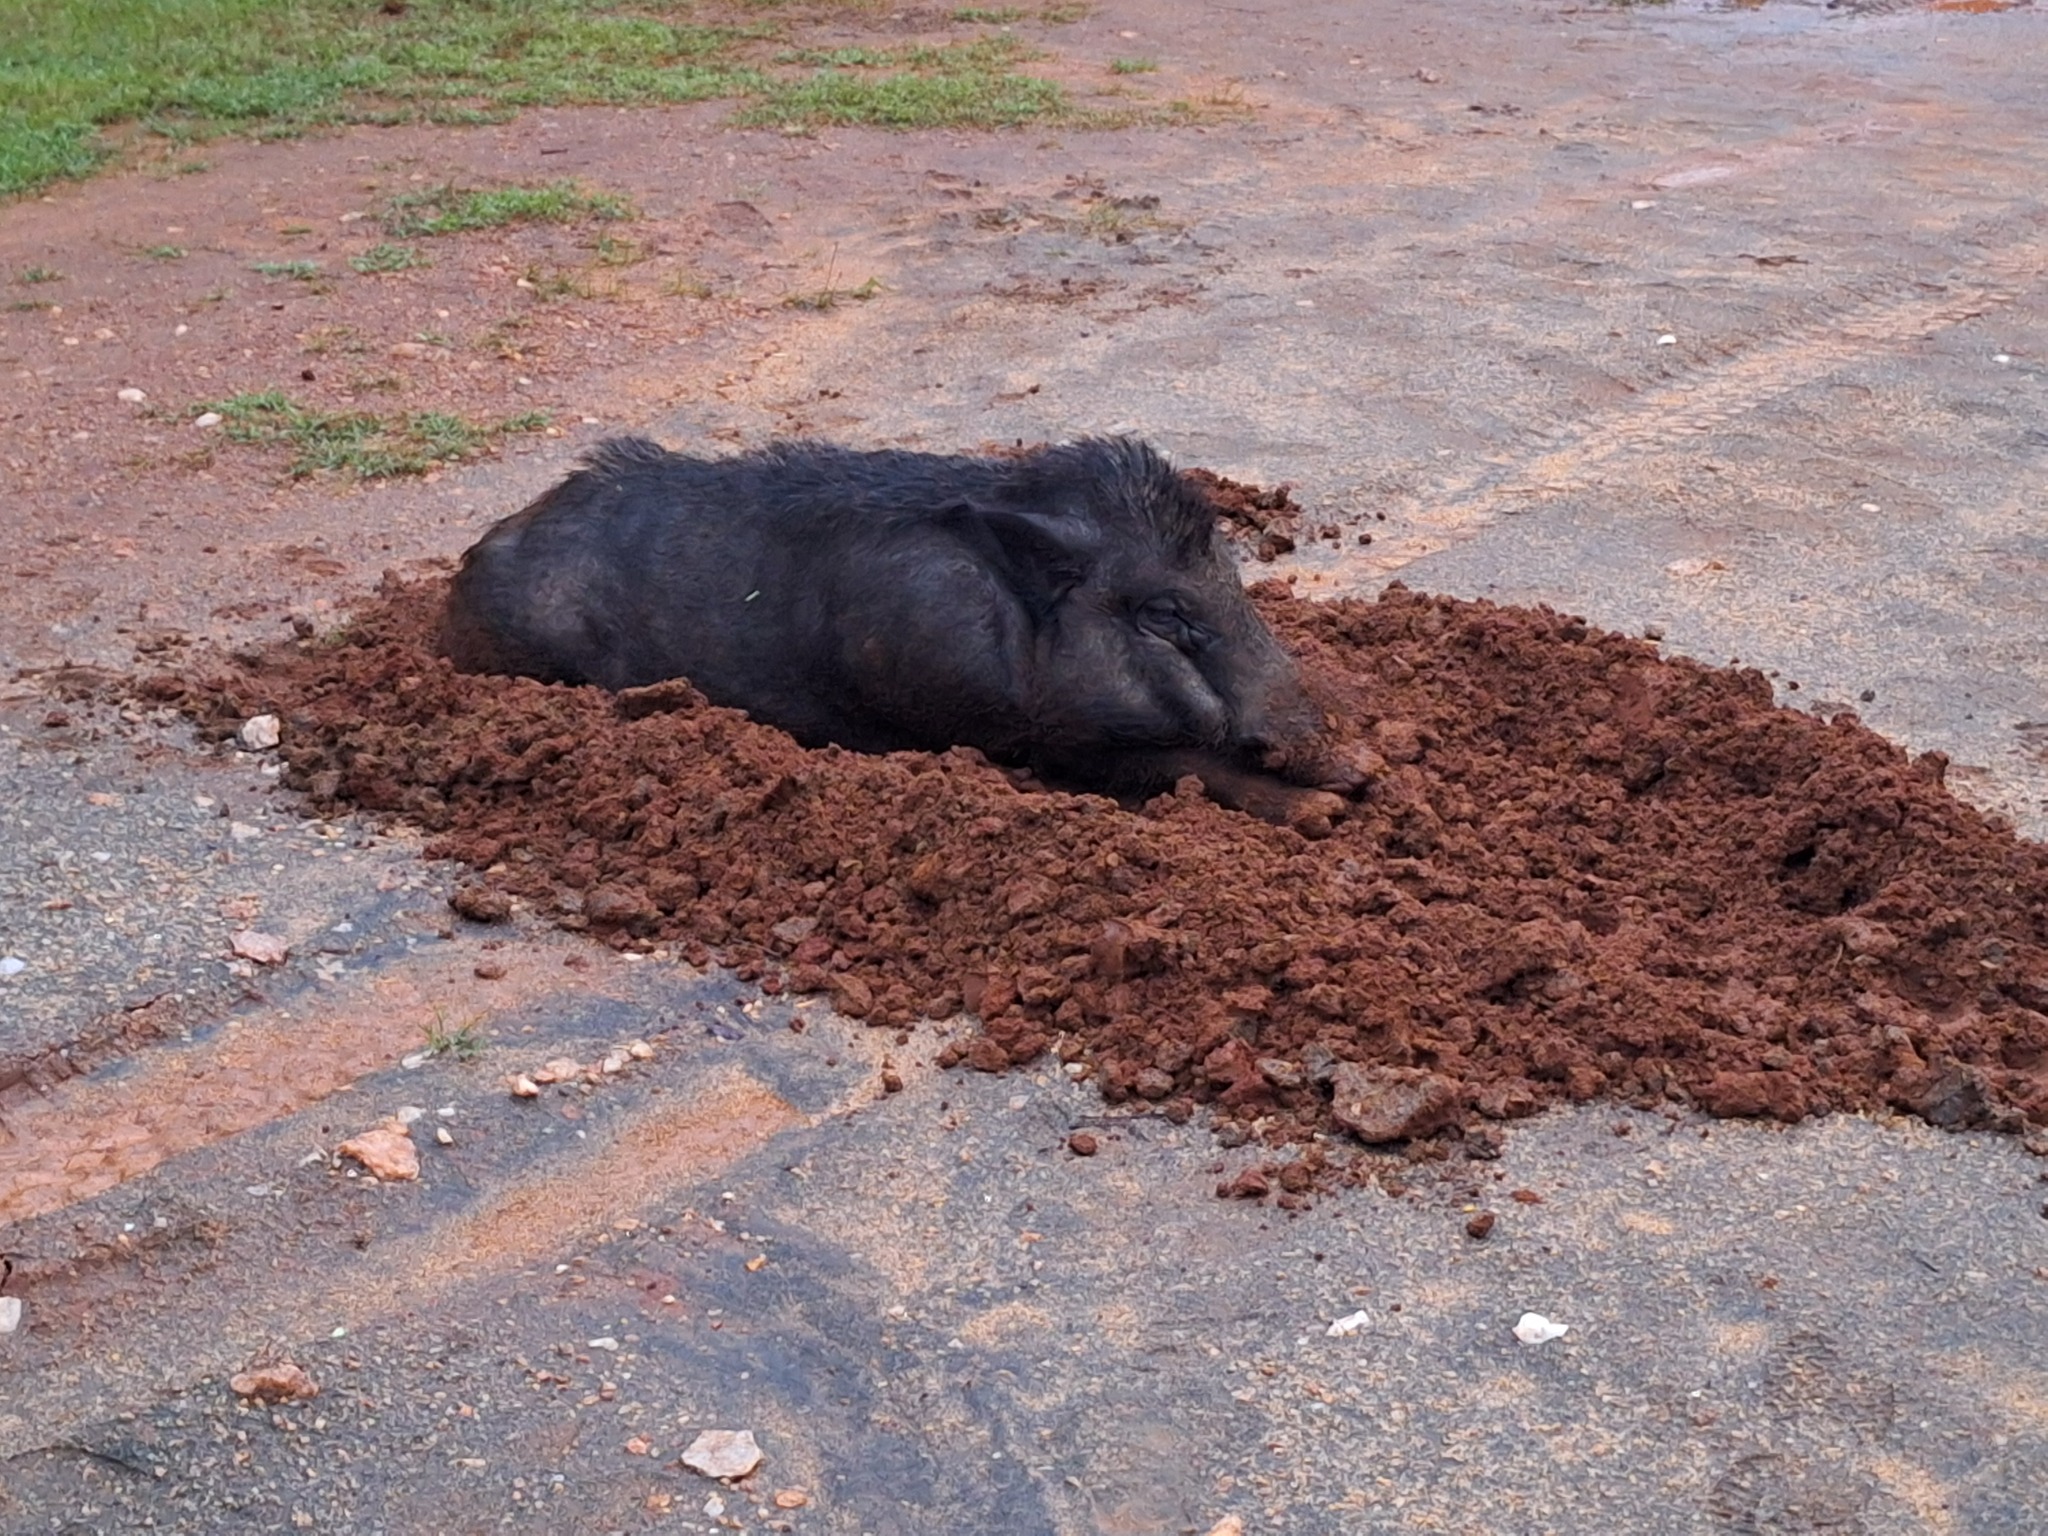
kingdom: Animalia
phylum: Chordata
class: Mammalia
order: Artiodactyla
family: Suidae
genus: Sus
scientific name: Sus scrofa
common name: Wild boar
